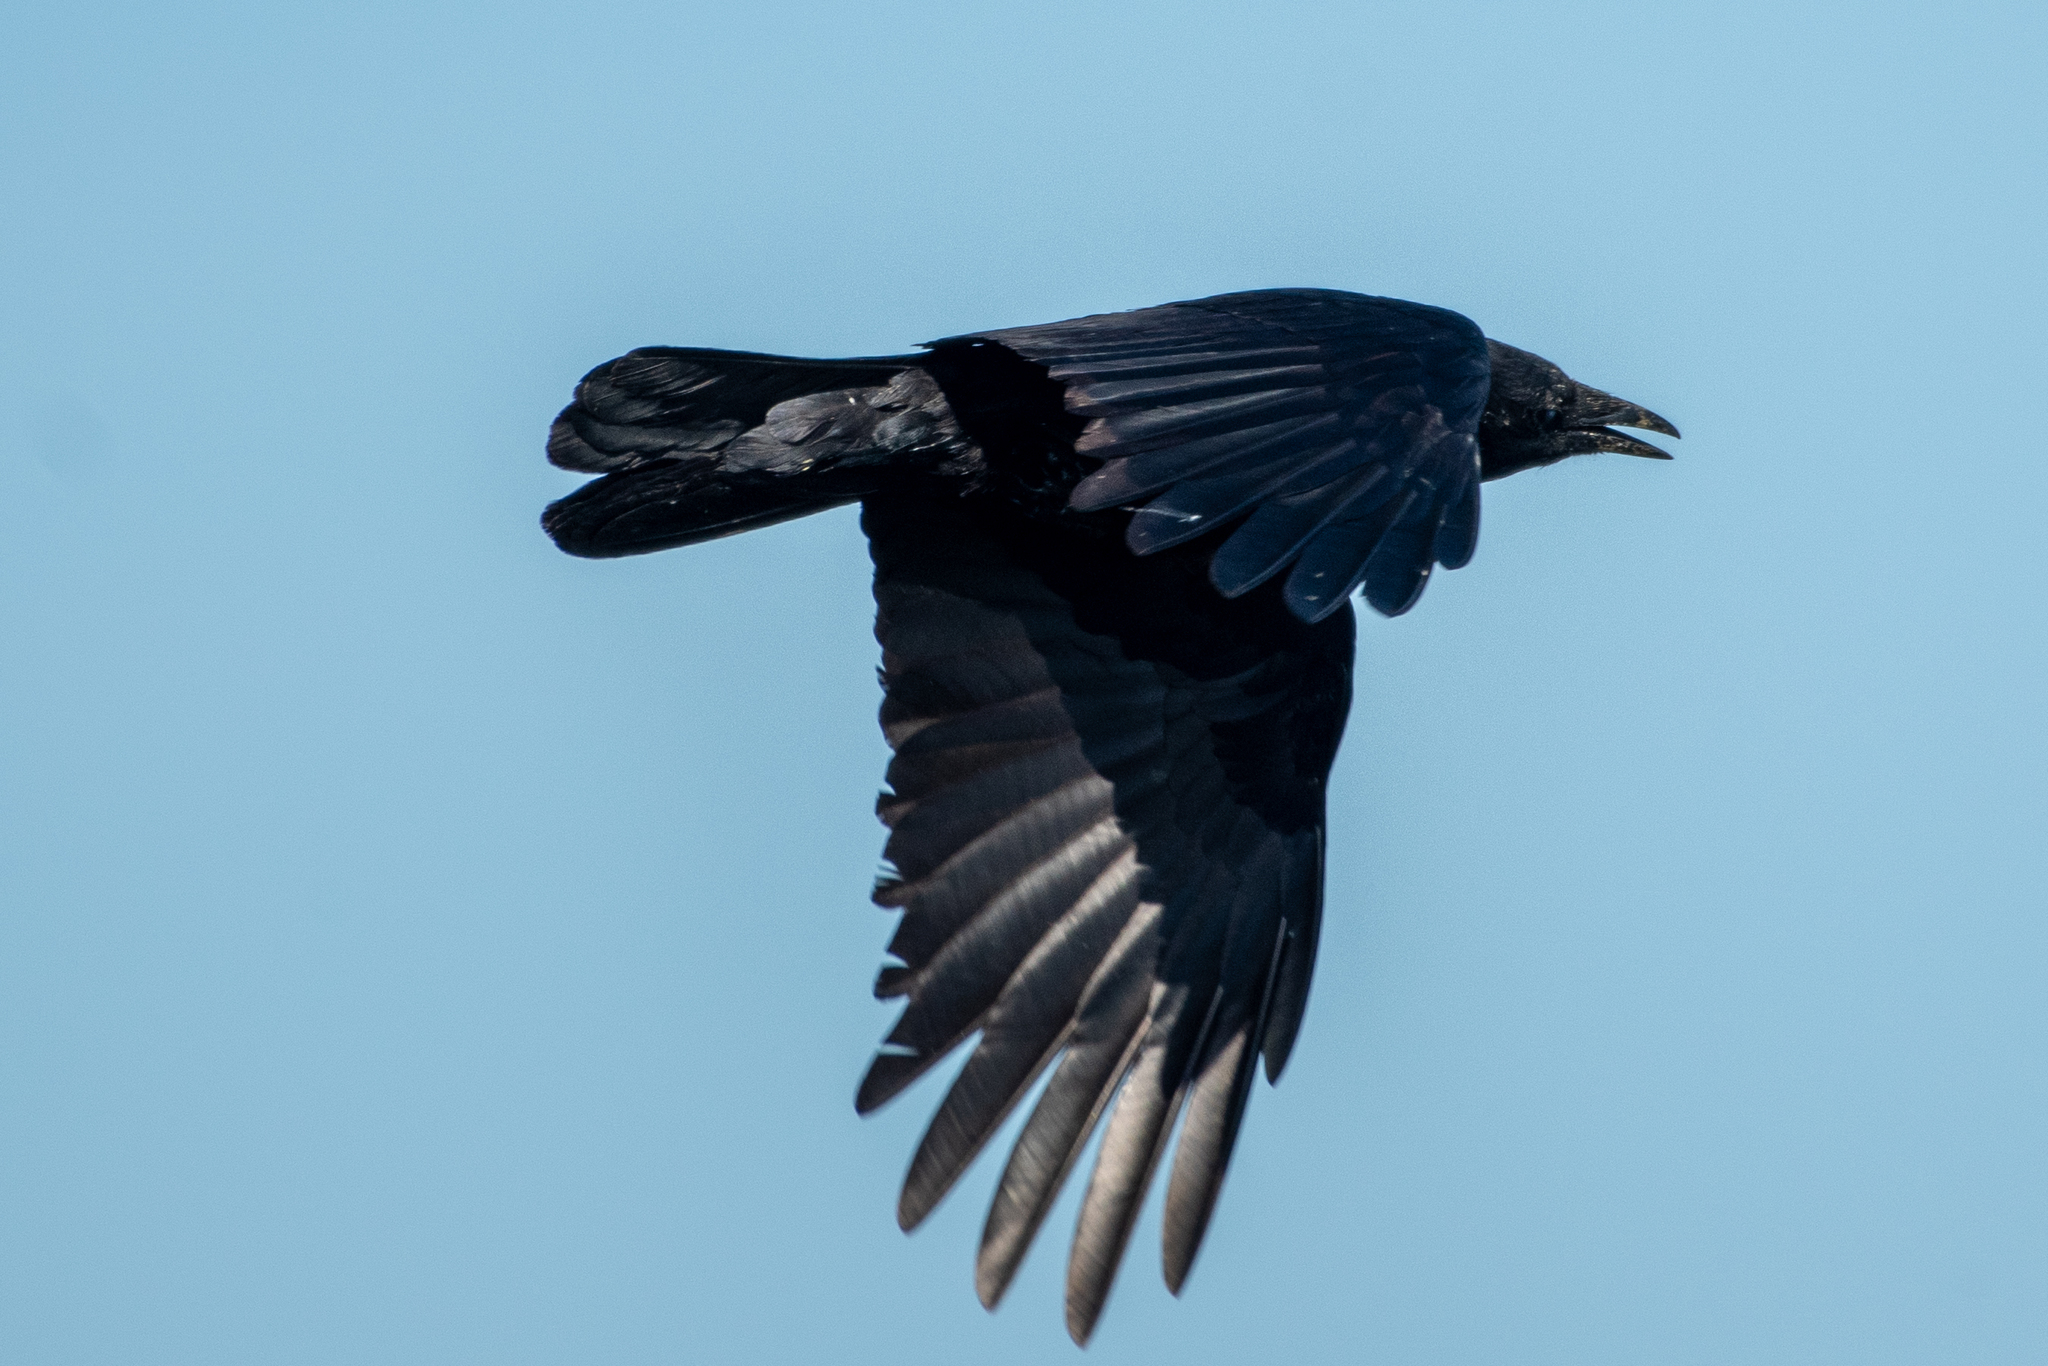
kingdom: Animalia
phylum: Chordata
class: Aves
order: Passeriformes
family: Corvidae
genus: Corvus
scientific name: Corvus brachyrhynchos
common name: American crow
